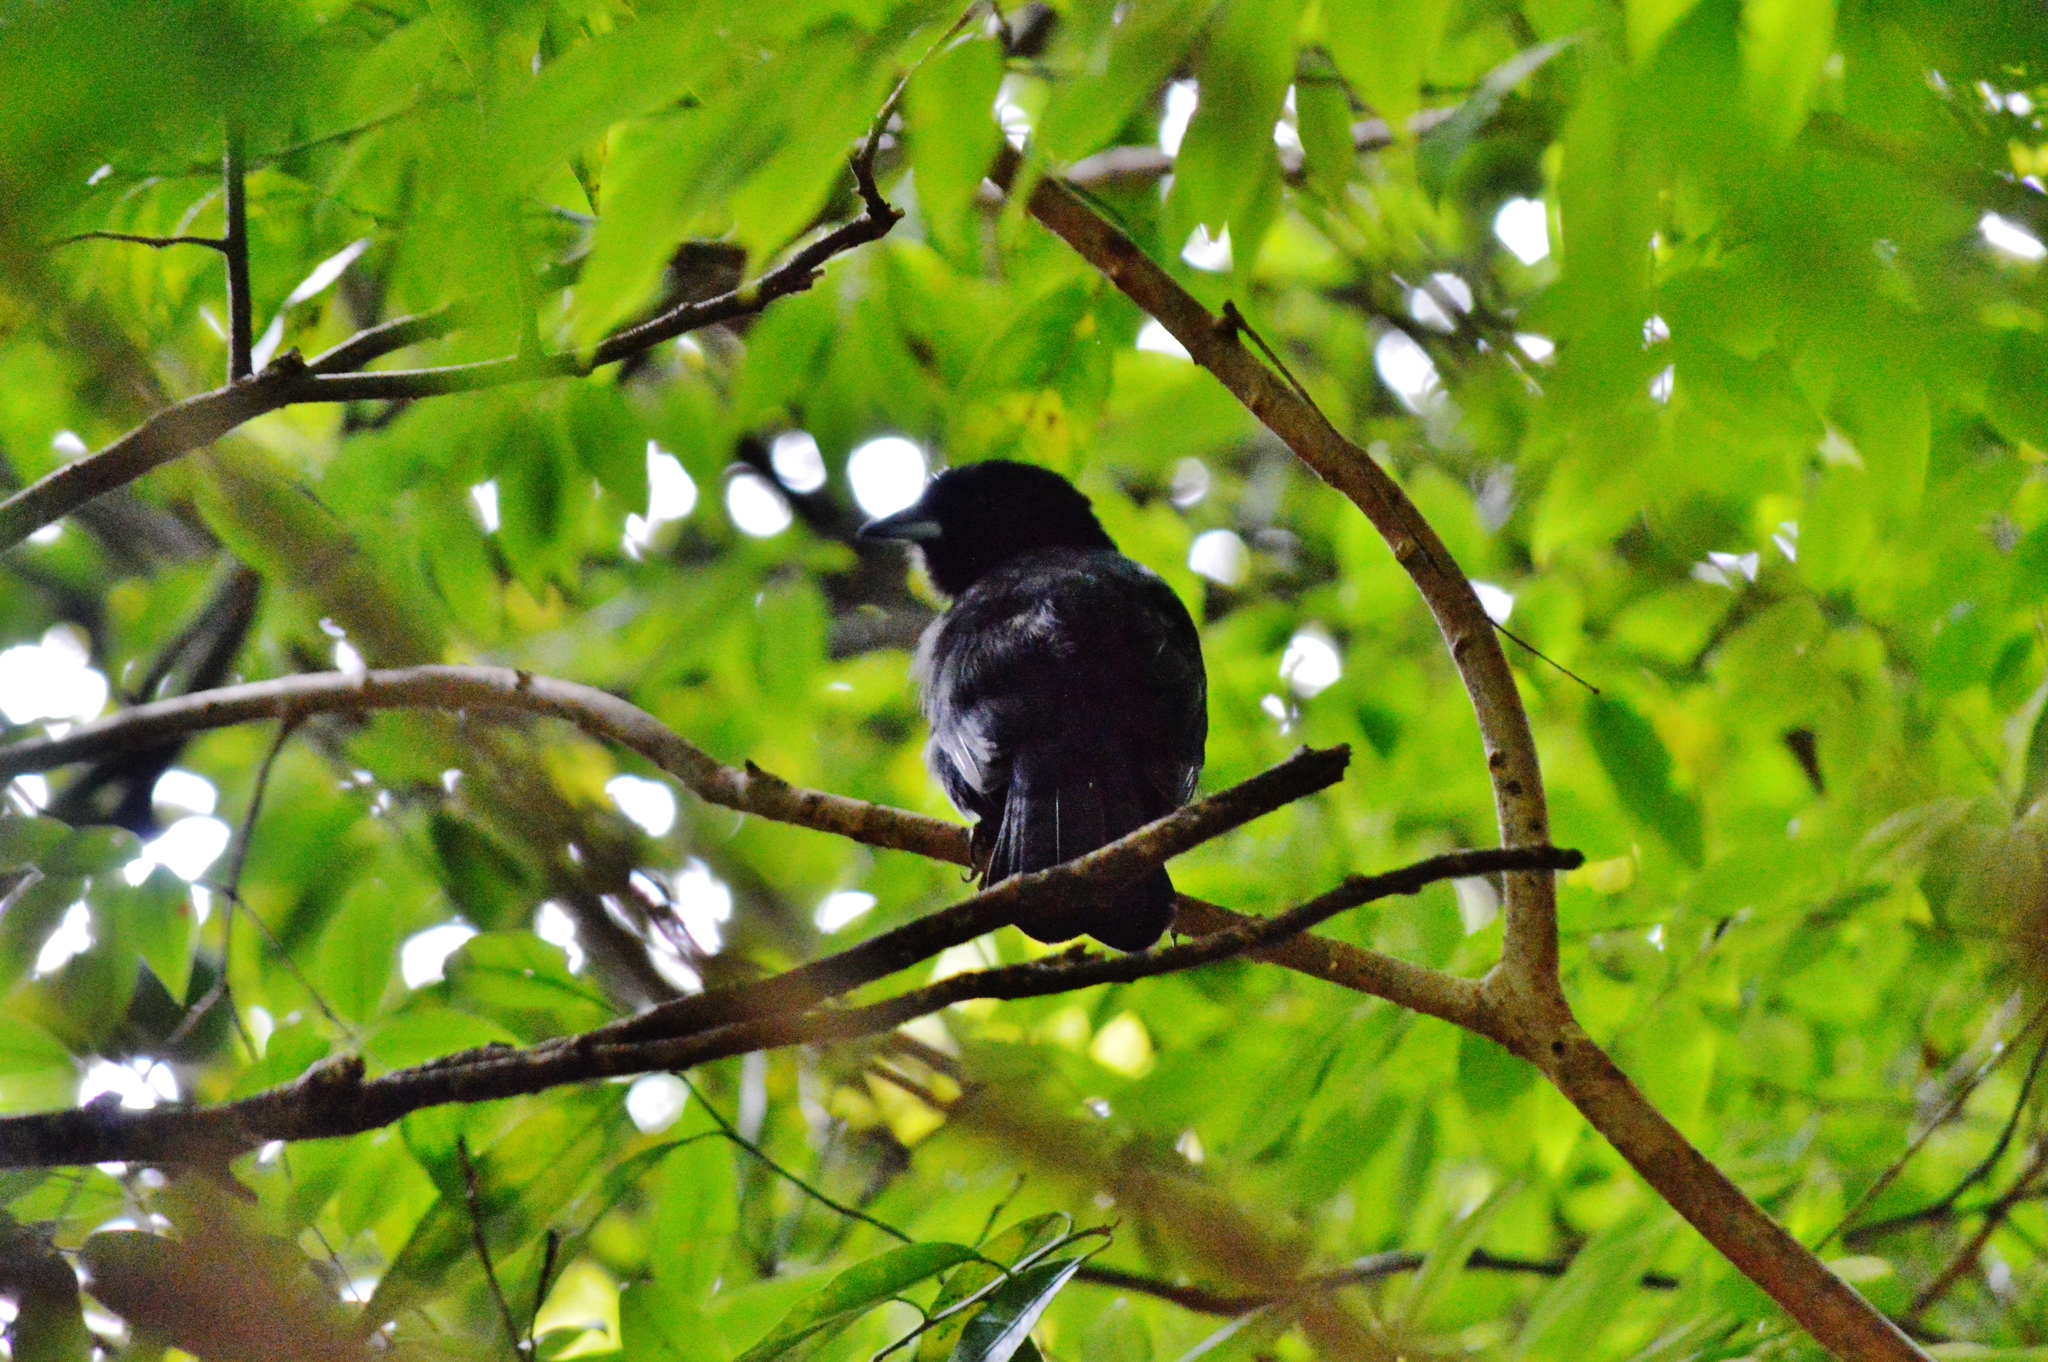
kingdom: Animalia
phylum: Chordata
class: Aves
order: Passeriformes
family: Thraupidae
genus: Tachyphonus
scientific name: Tachyphonus rufus
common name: White-lined tanager
